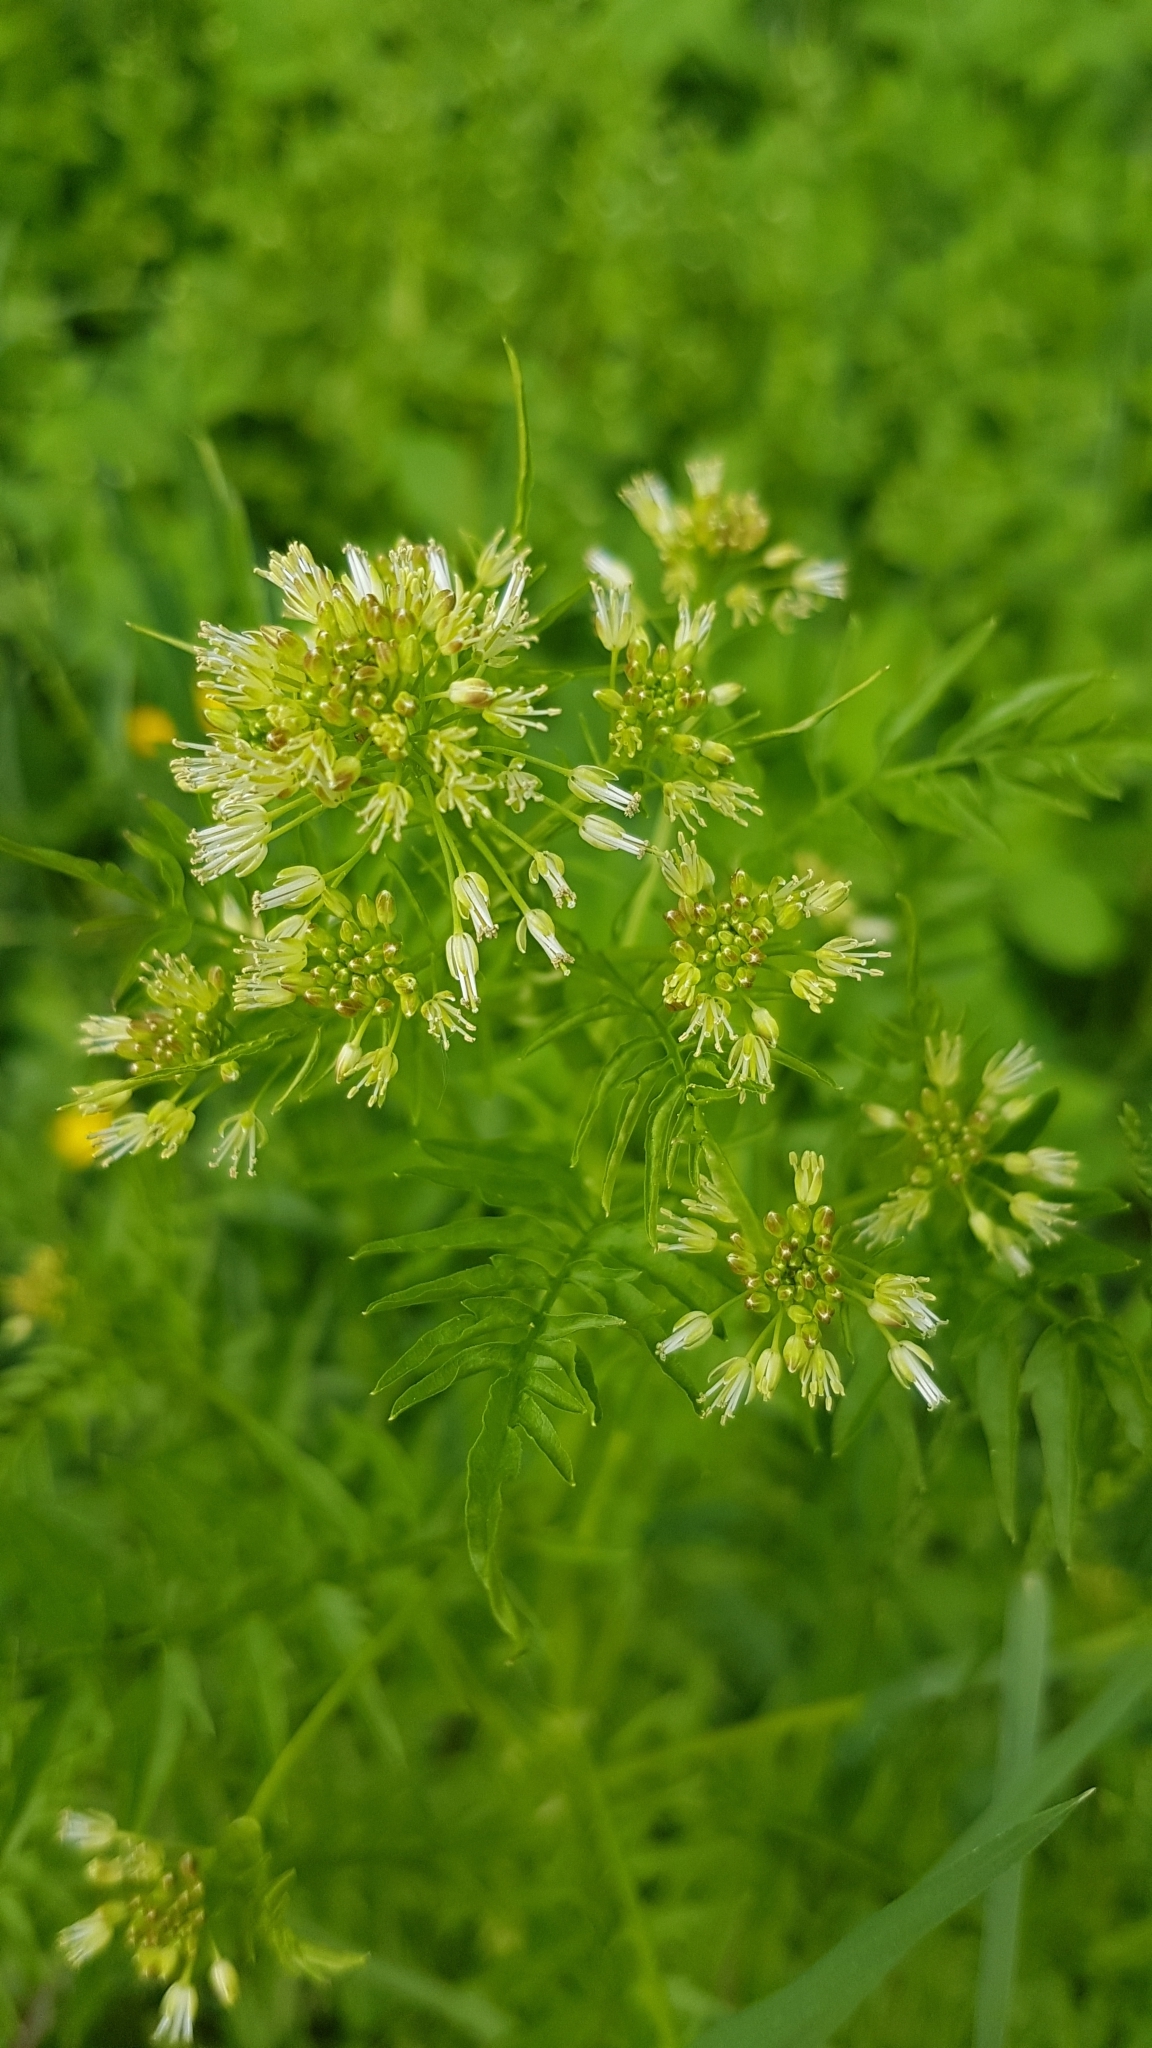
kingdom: Plantae
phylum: Tracheophyta
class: Magnoliopsida
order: Brassicales
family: Brassicaceae
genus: Cardamine
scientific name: Cardamine impatiens
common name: Narrow-leaved bitter-cress
